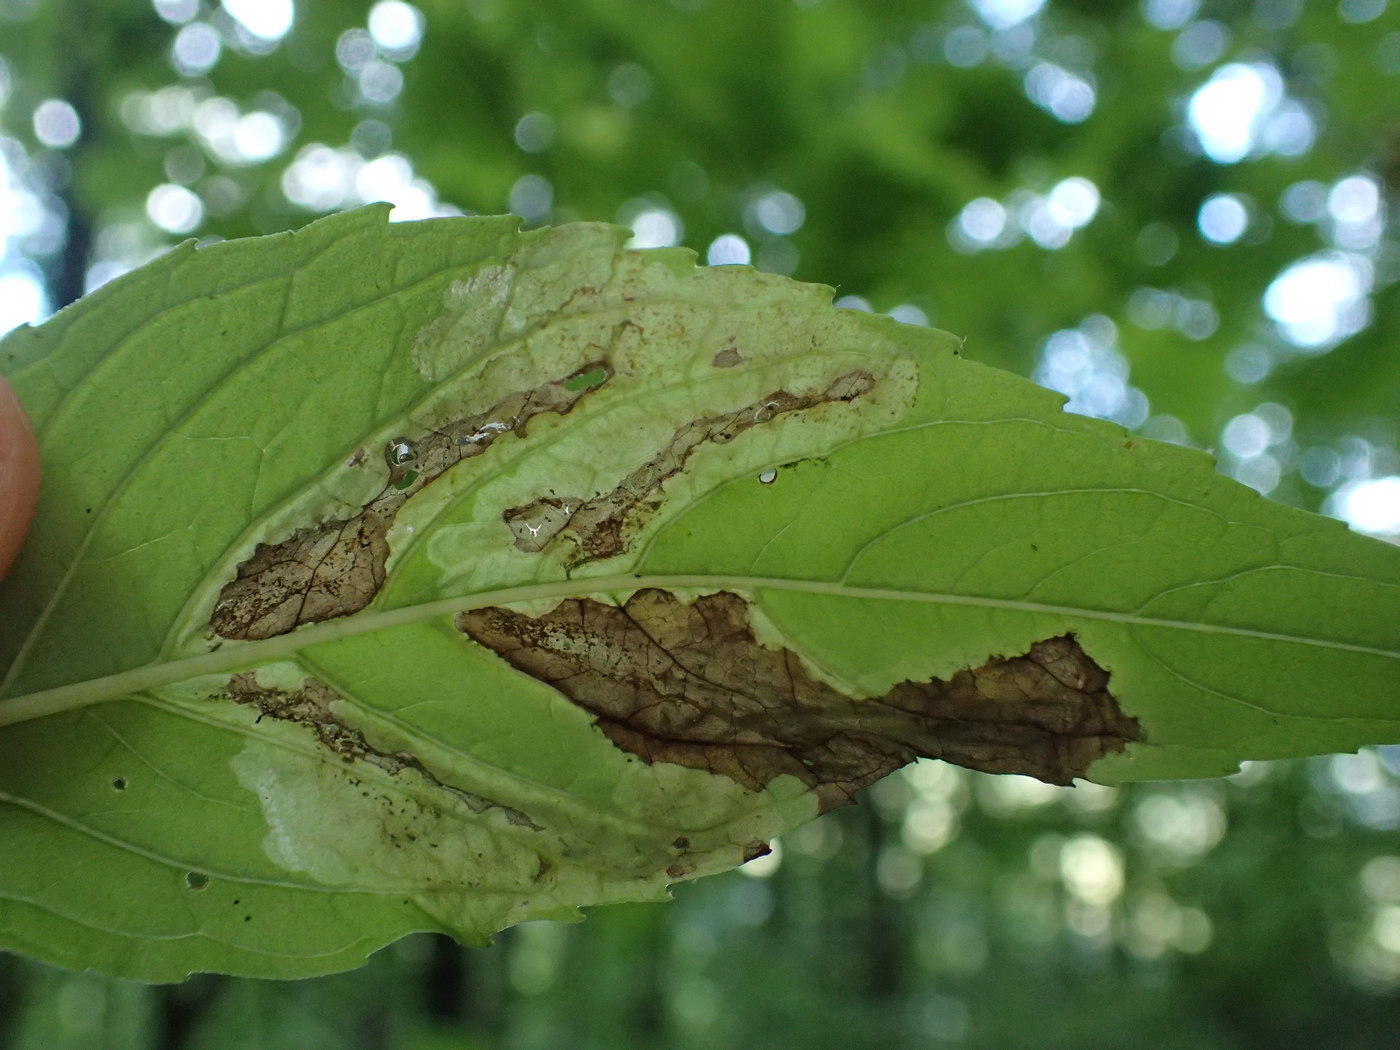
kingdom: Animalia
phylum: Arthropoda
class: Insecta
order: Diptera
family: Agromyzidae
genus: Calycomyza
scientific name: Calycomyza menthae
